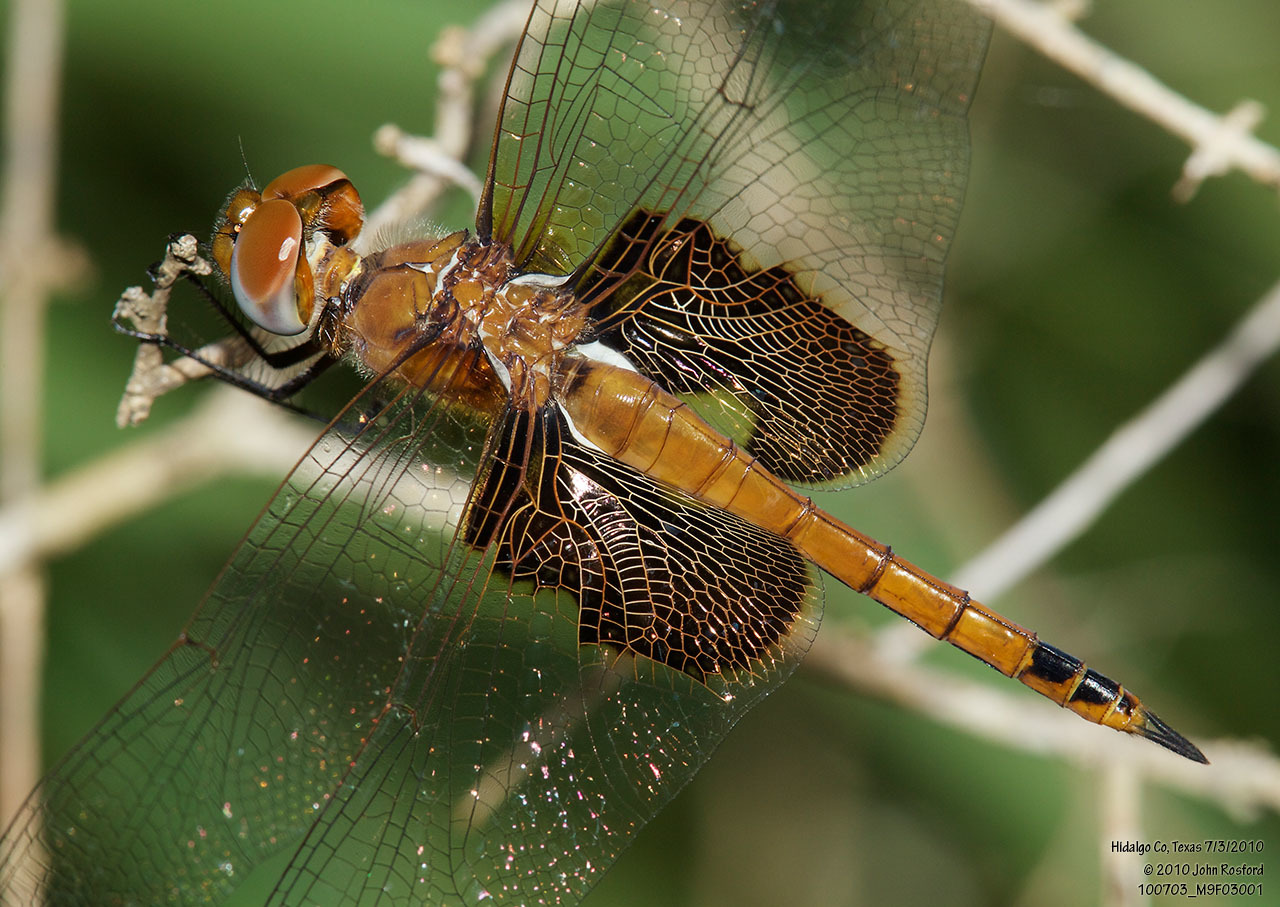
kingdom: Animalia
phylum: Arthropoda
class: Insecta
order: Odonata
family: Libellulidae
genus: Tramea
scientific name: Tramea onusta
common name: Red saddlebags
